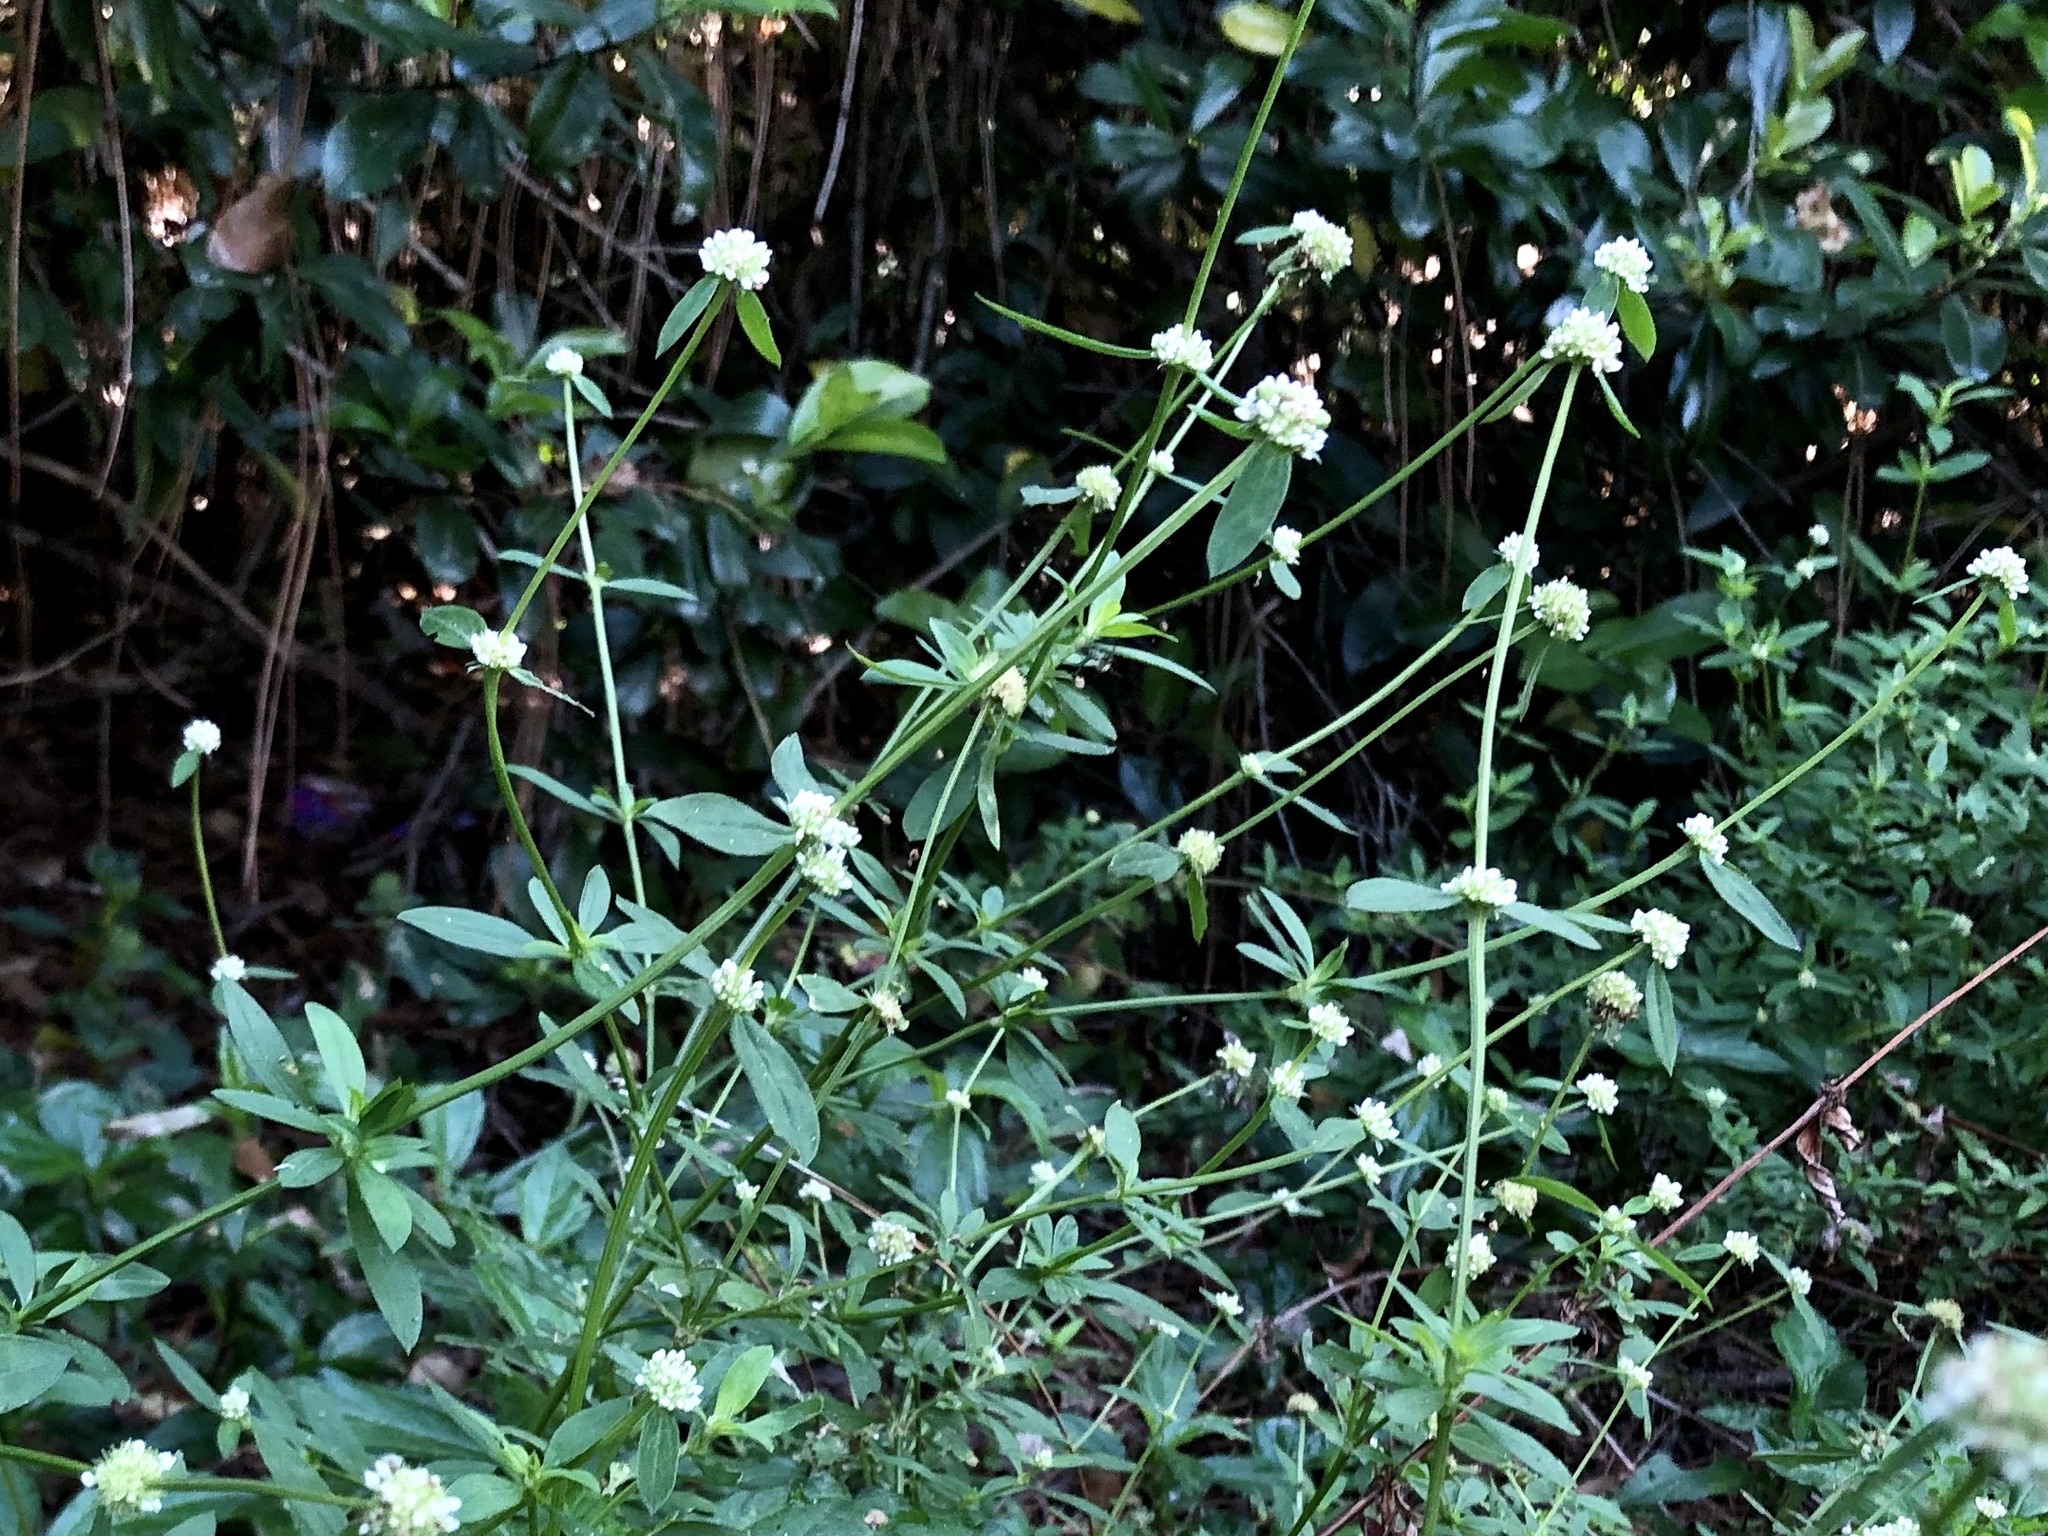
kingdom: Plantae
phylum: Tracheophyta
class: Magnoliopsida
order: Gentianales
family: Rubiaceae
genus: Spermacoce
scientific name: Spermacoce verticillata
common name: Shrubby false buttonweed
